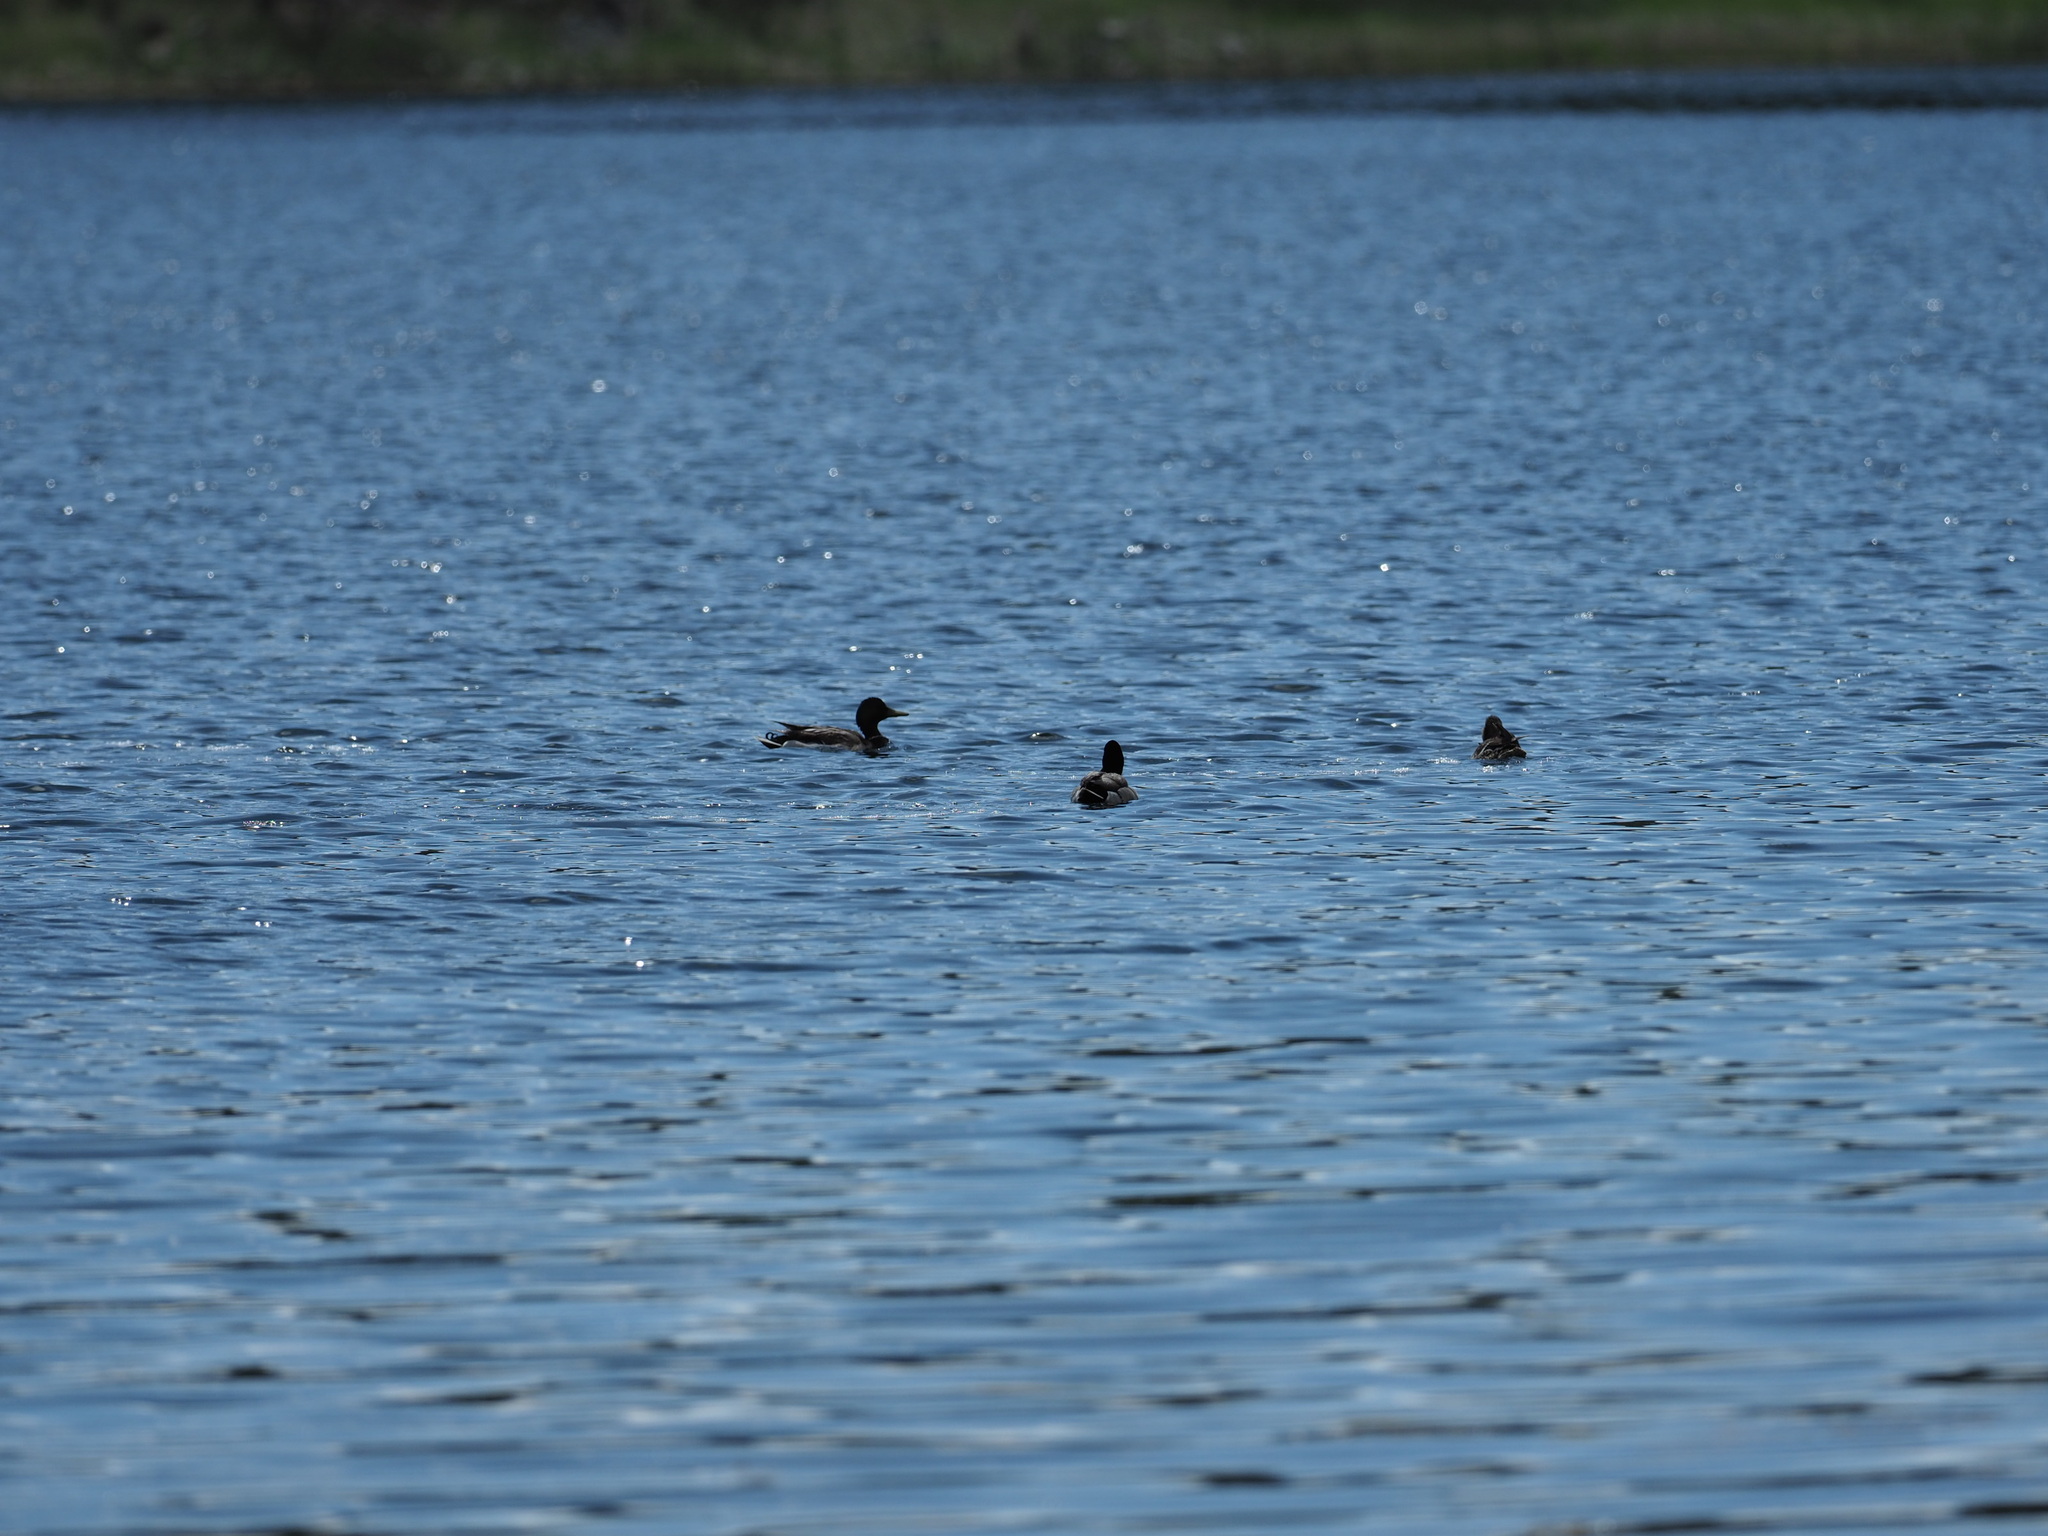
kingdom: Animalia
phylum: Chordata
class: Aves
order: Anseriformes
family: Anatidae
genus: Anas
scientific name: Anas platyrhynchos
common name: Mallard
